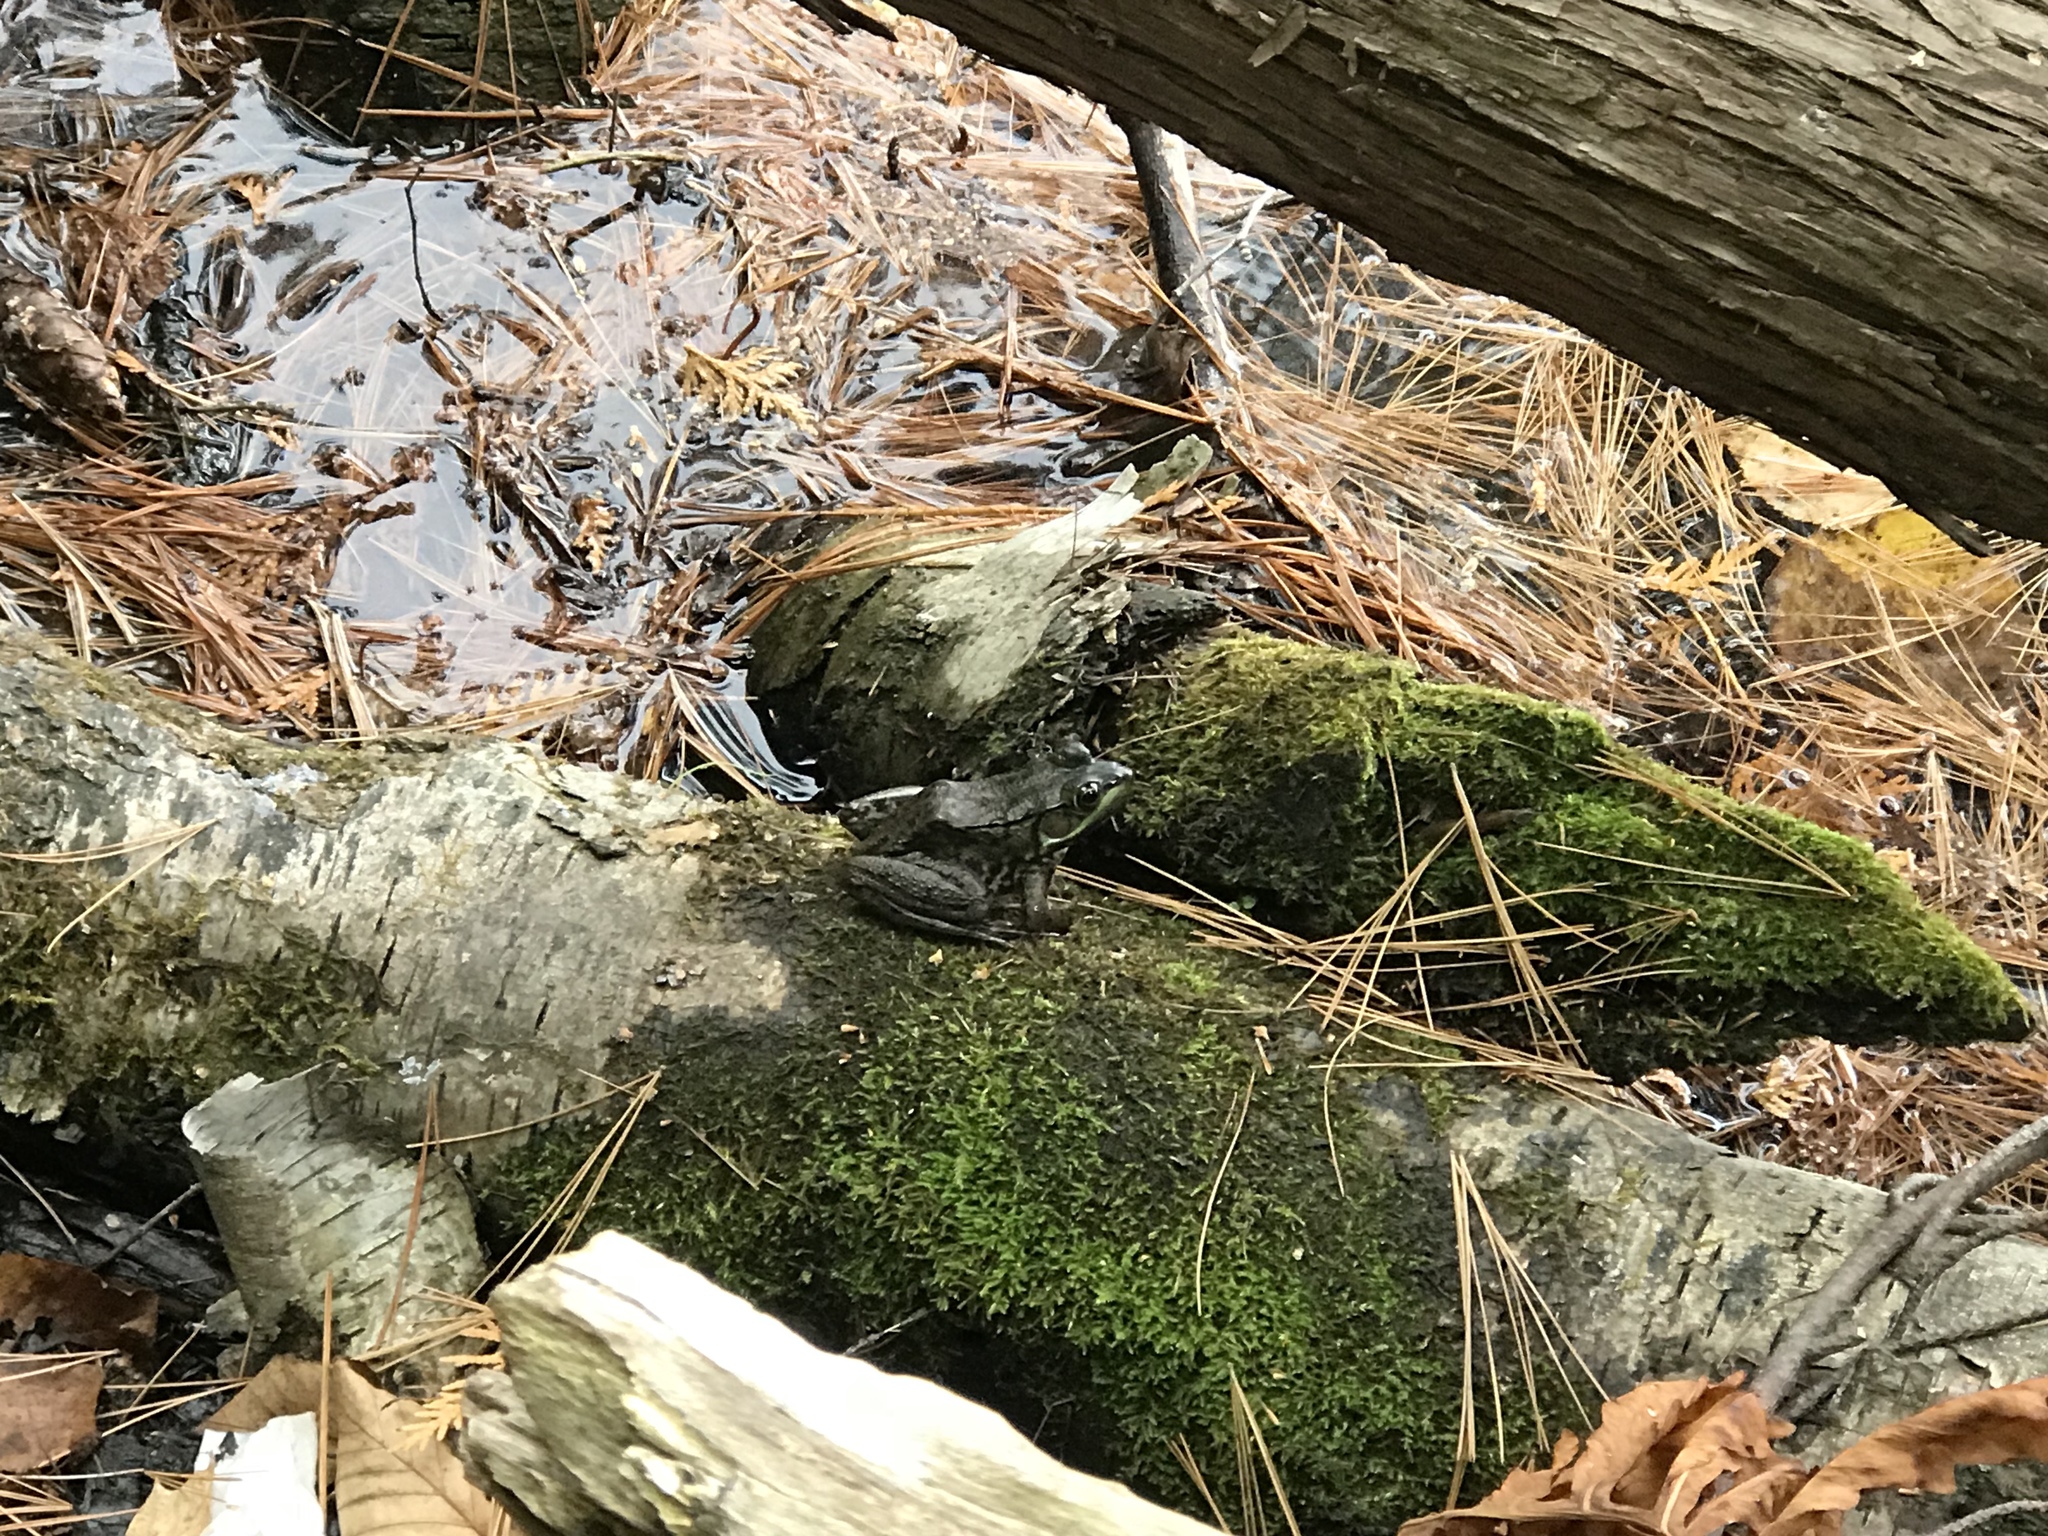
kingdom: Animalia
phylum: Chordata
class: Amphibia
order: Anura
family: Ranidae
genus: Lithobates
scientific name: Lithobates clamitans
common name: Green frog
